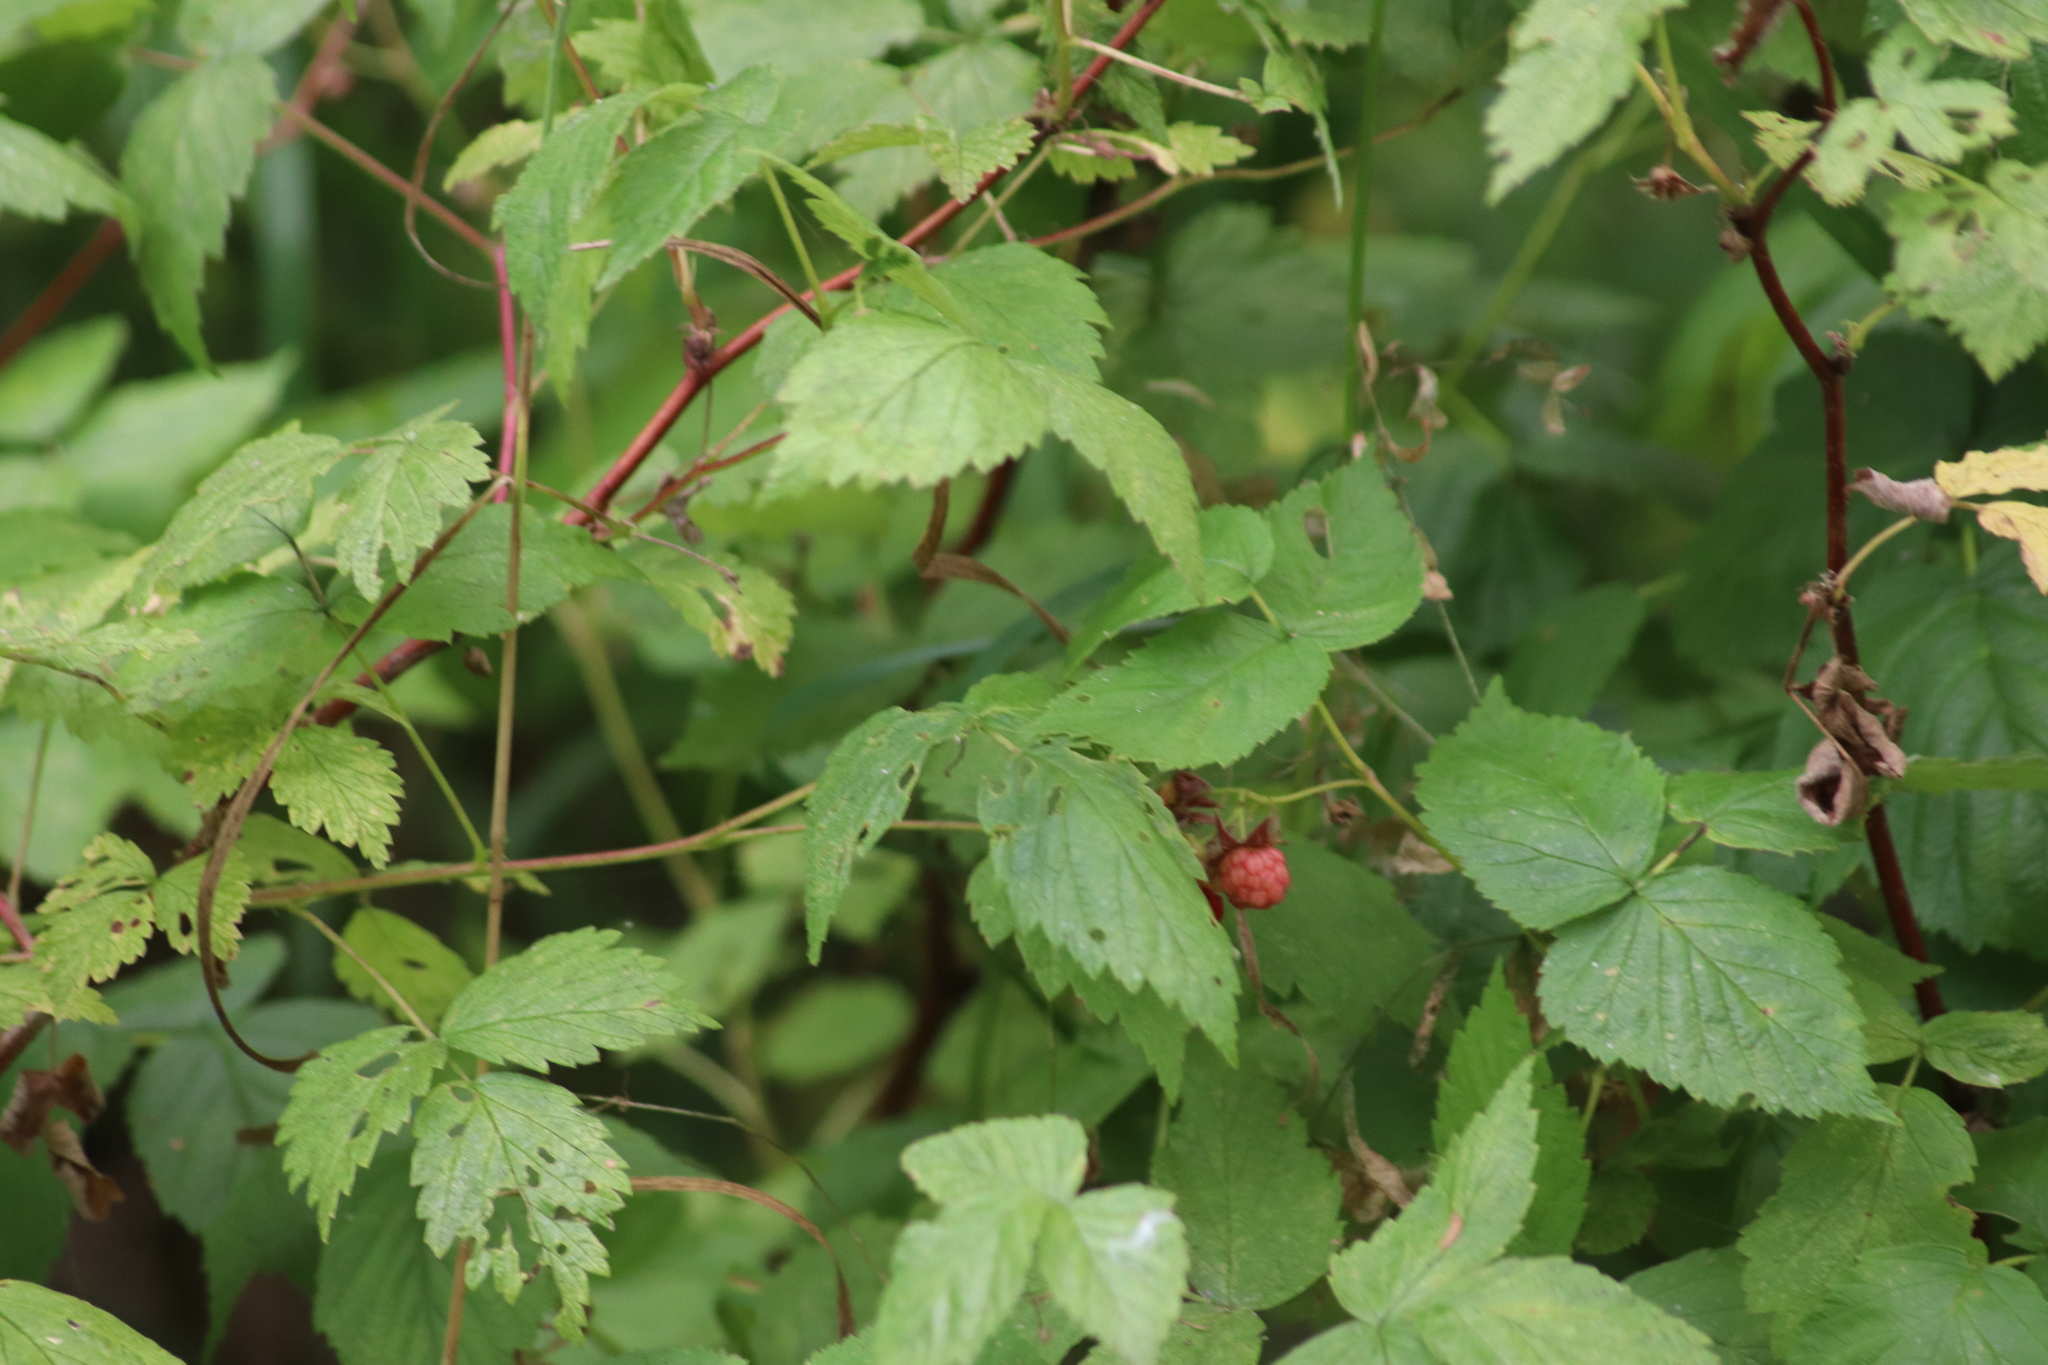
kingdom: Plantae
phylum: Tracheophyta
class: Magnoliopsida
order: Rosales
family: Rosaceae
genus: Rubus
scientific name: Rubus idaeus
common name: Raspberry
